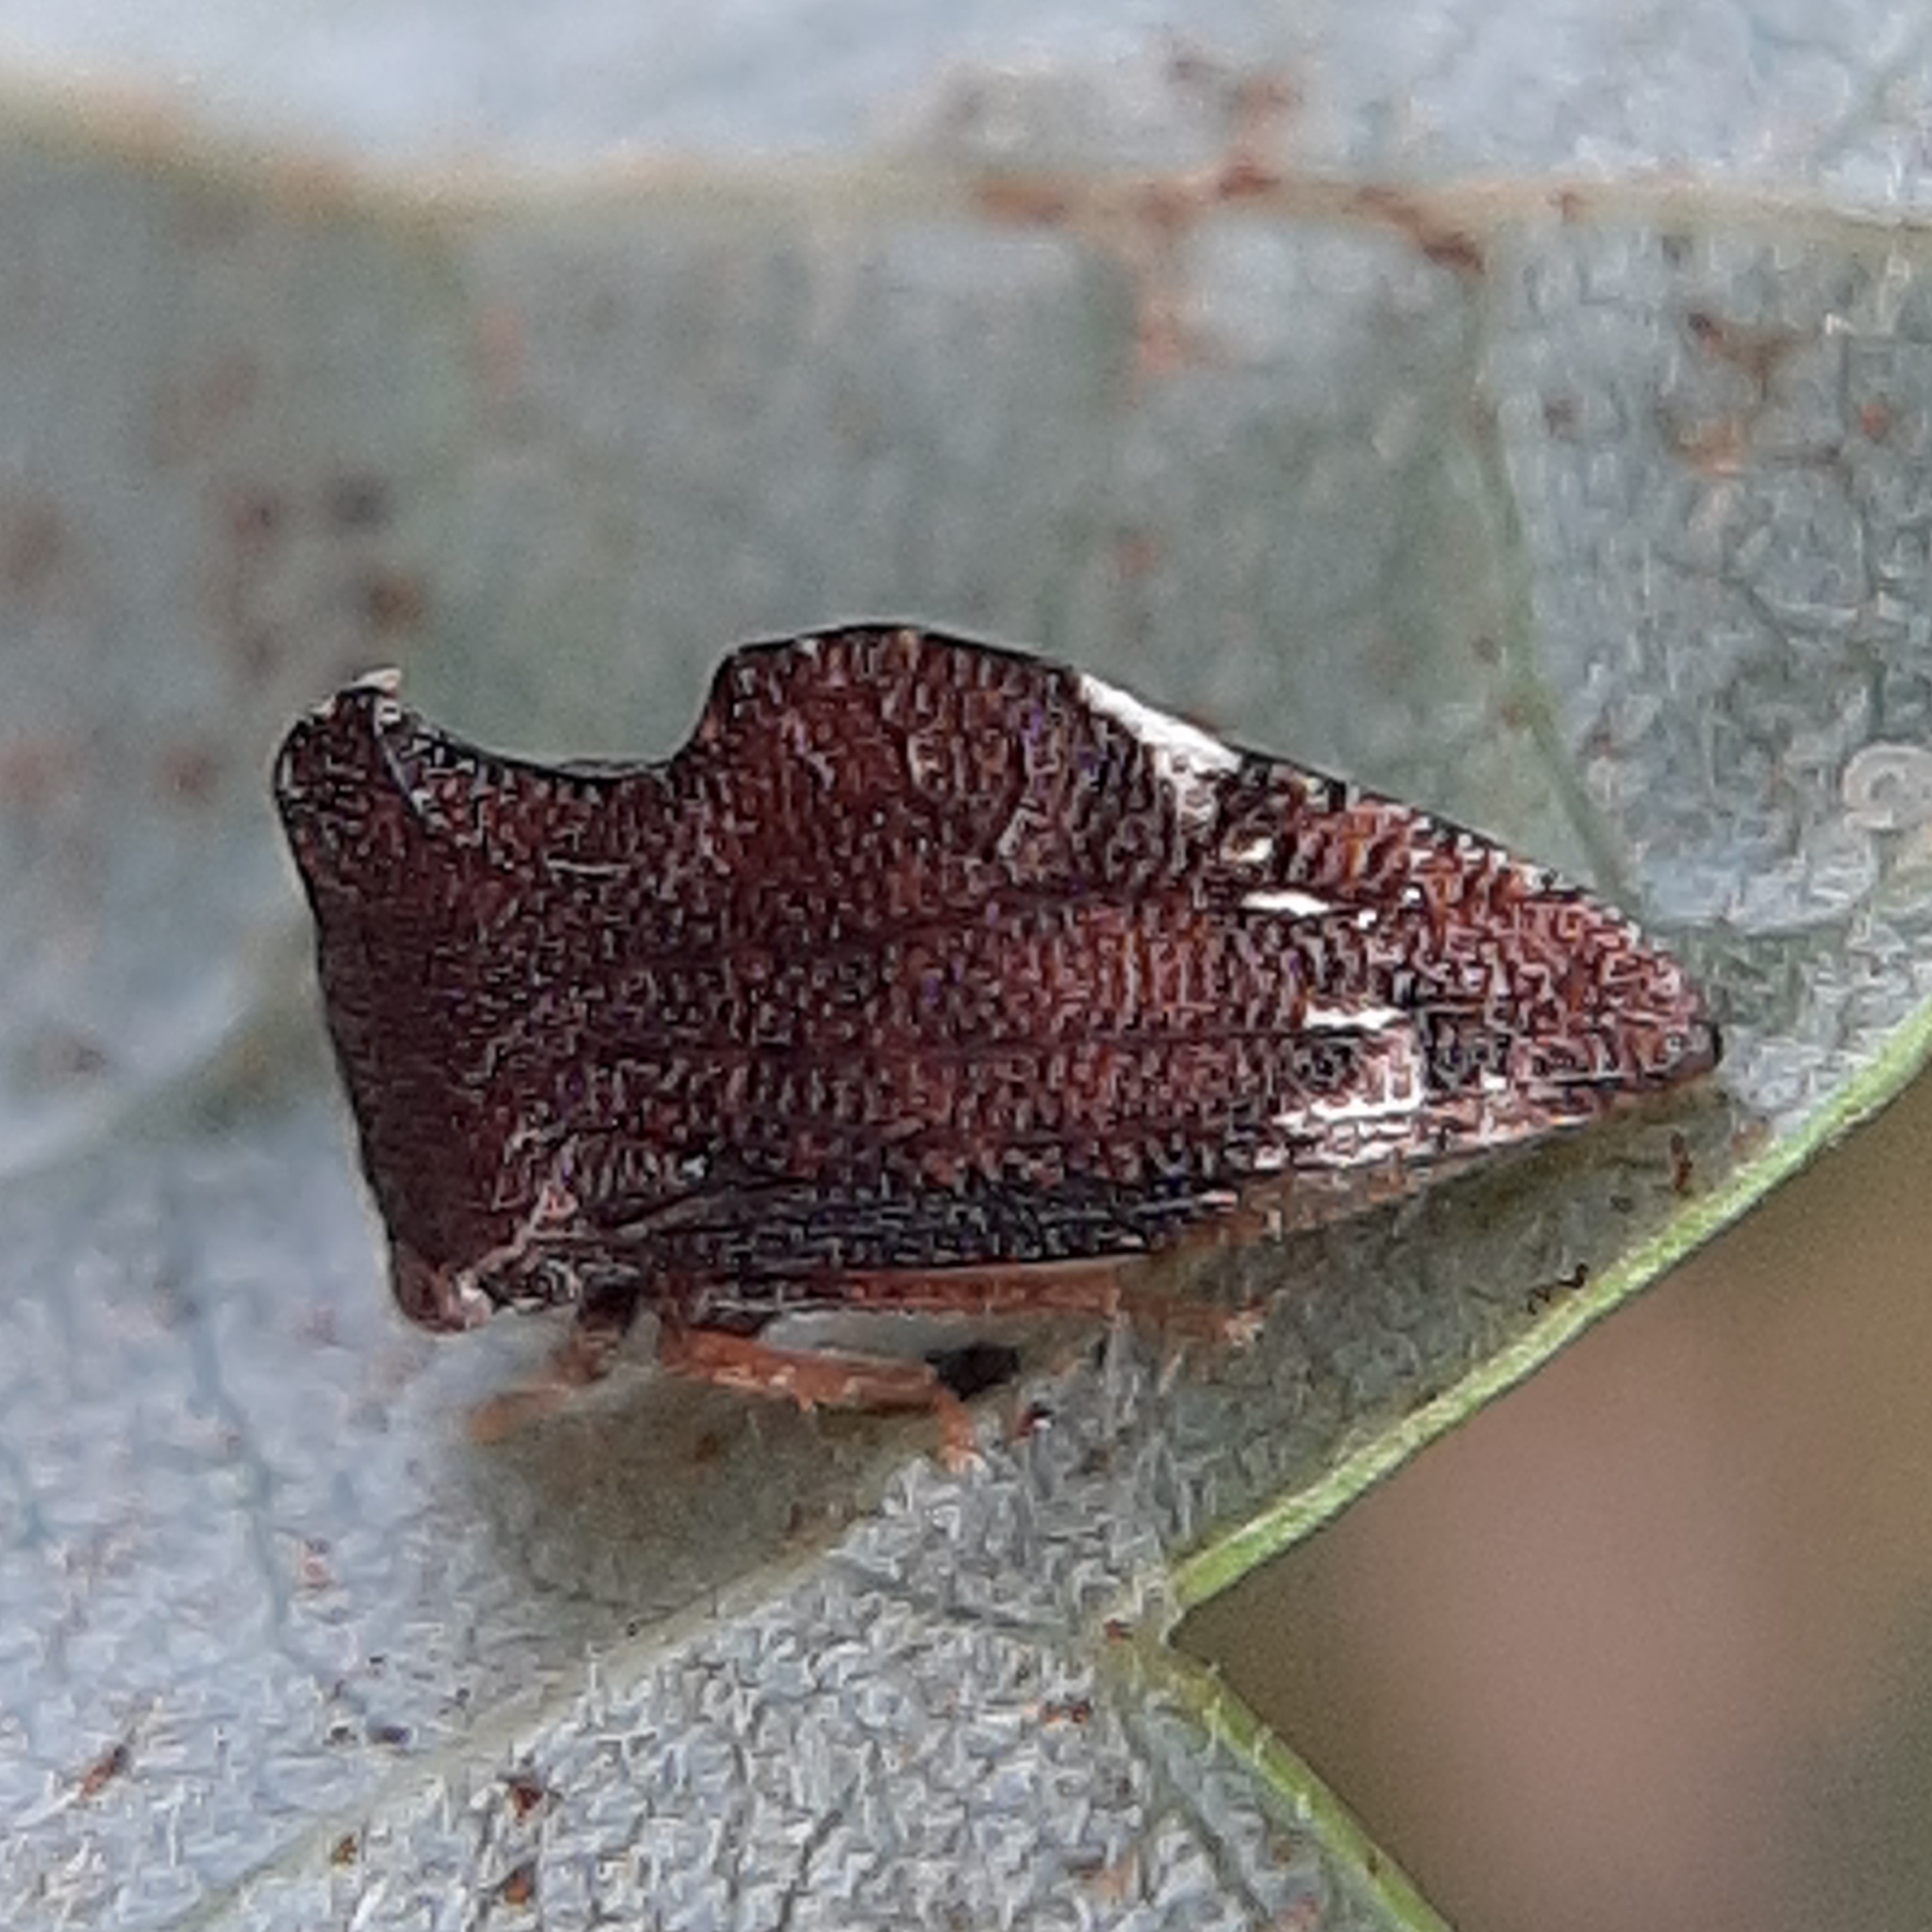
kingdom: Animalia
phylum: Arthropoda
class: Insecta
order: Hemiptera
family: Membracidae
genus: Entylia
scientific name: Entylia carinata
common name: Keeled treehopper
